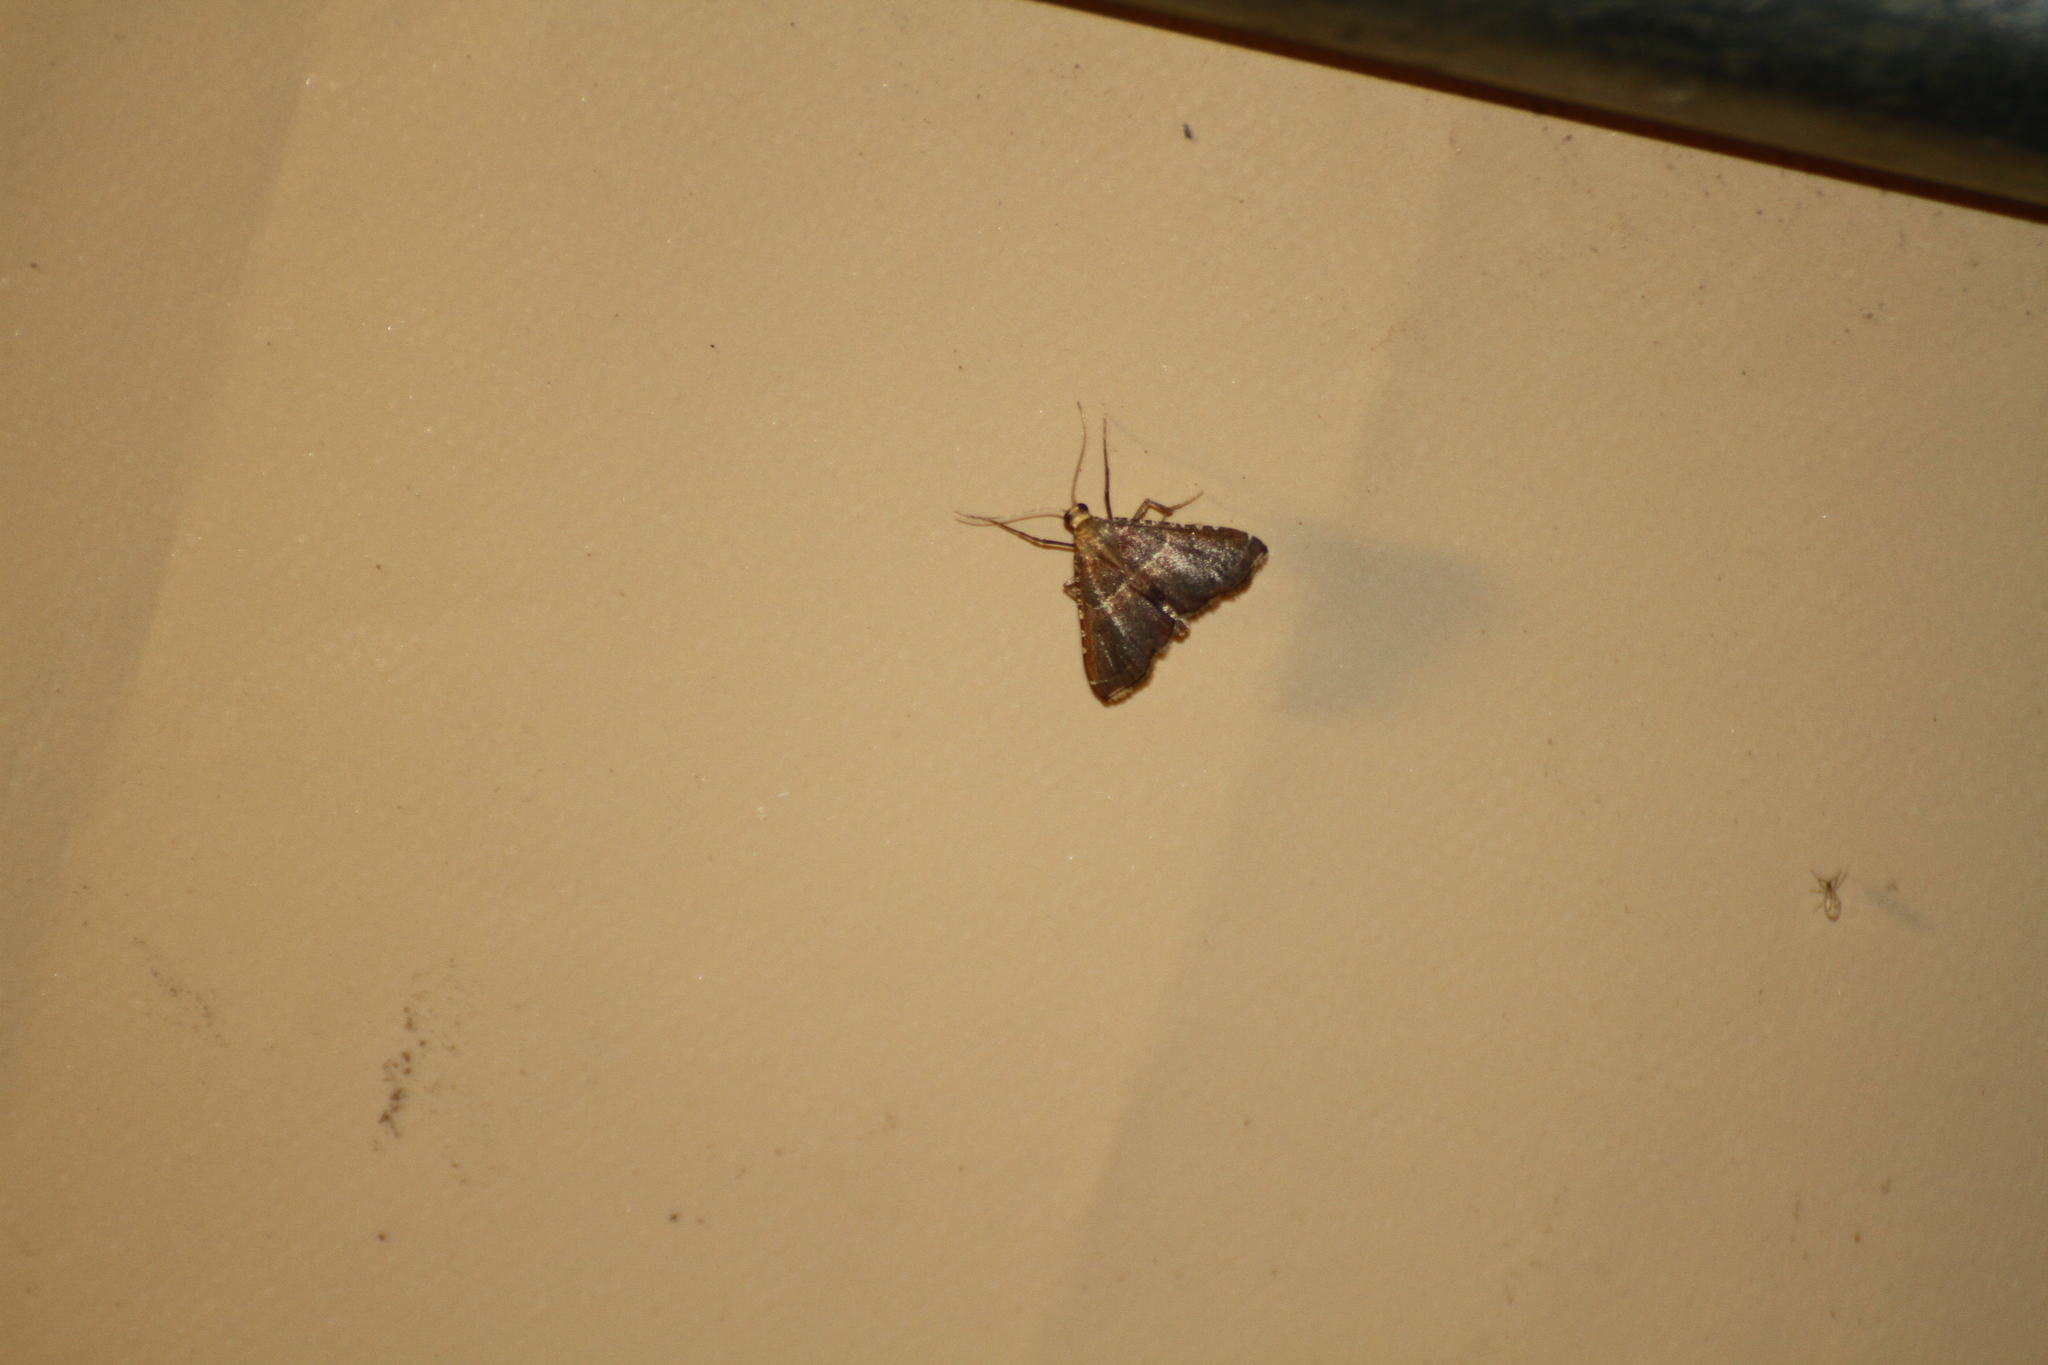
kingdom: Animalia
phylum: Arthropoda
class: Insecta
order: Lepidoptera
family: Pyralidae
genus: Endotricha
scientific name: Endotricha puncticostalis
